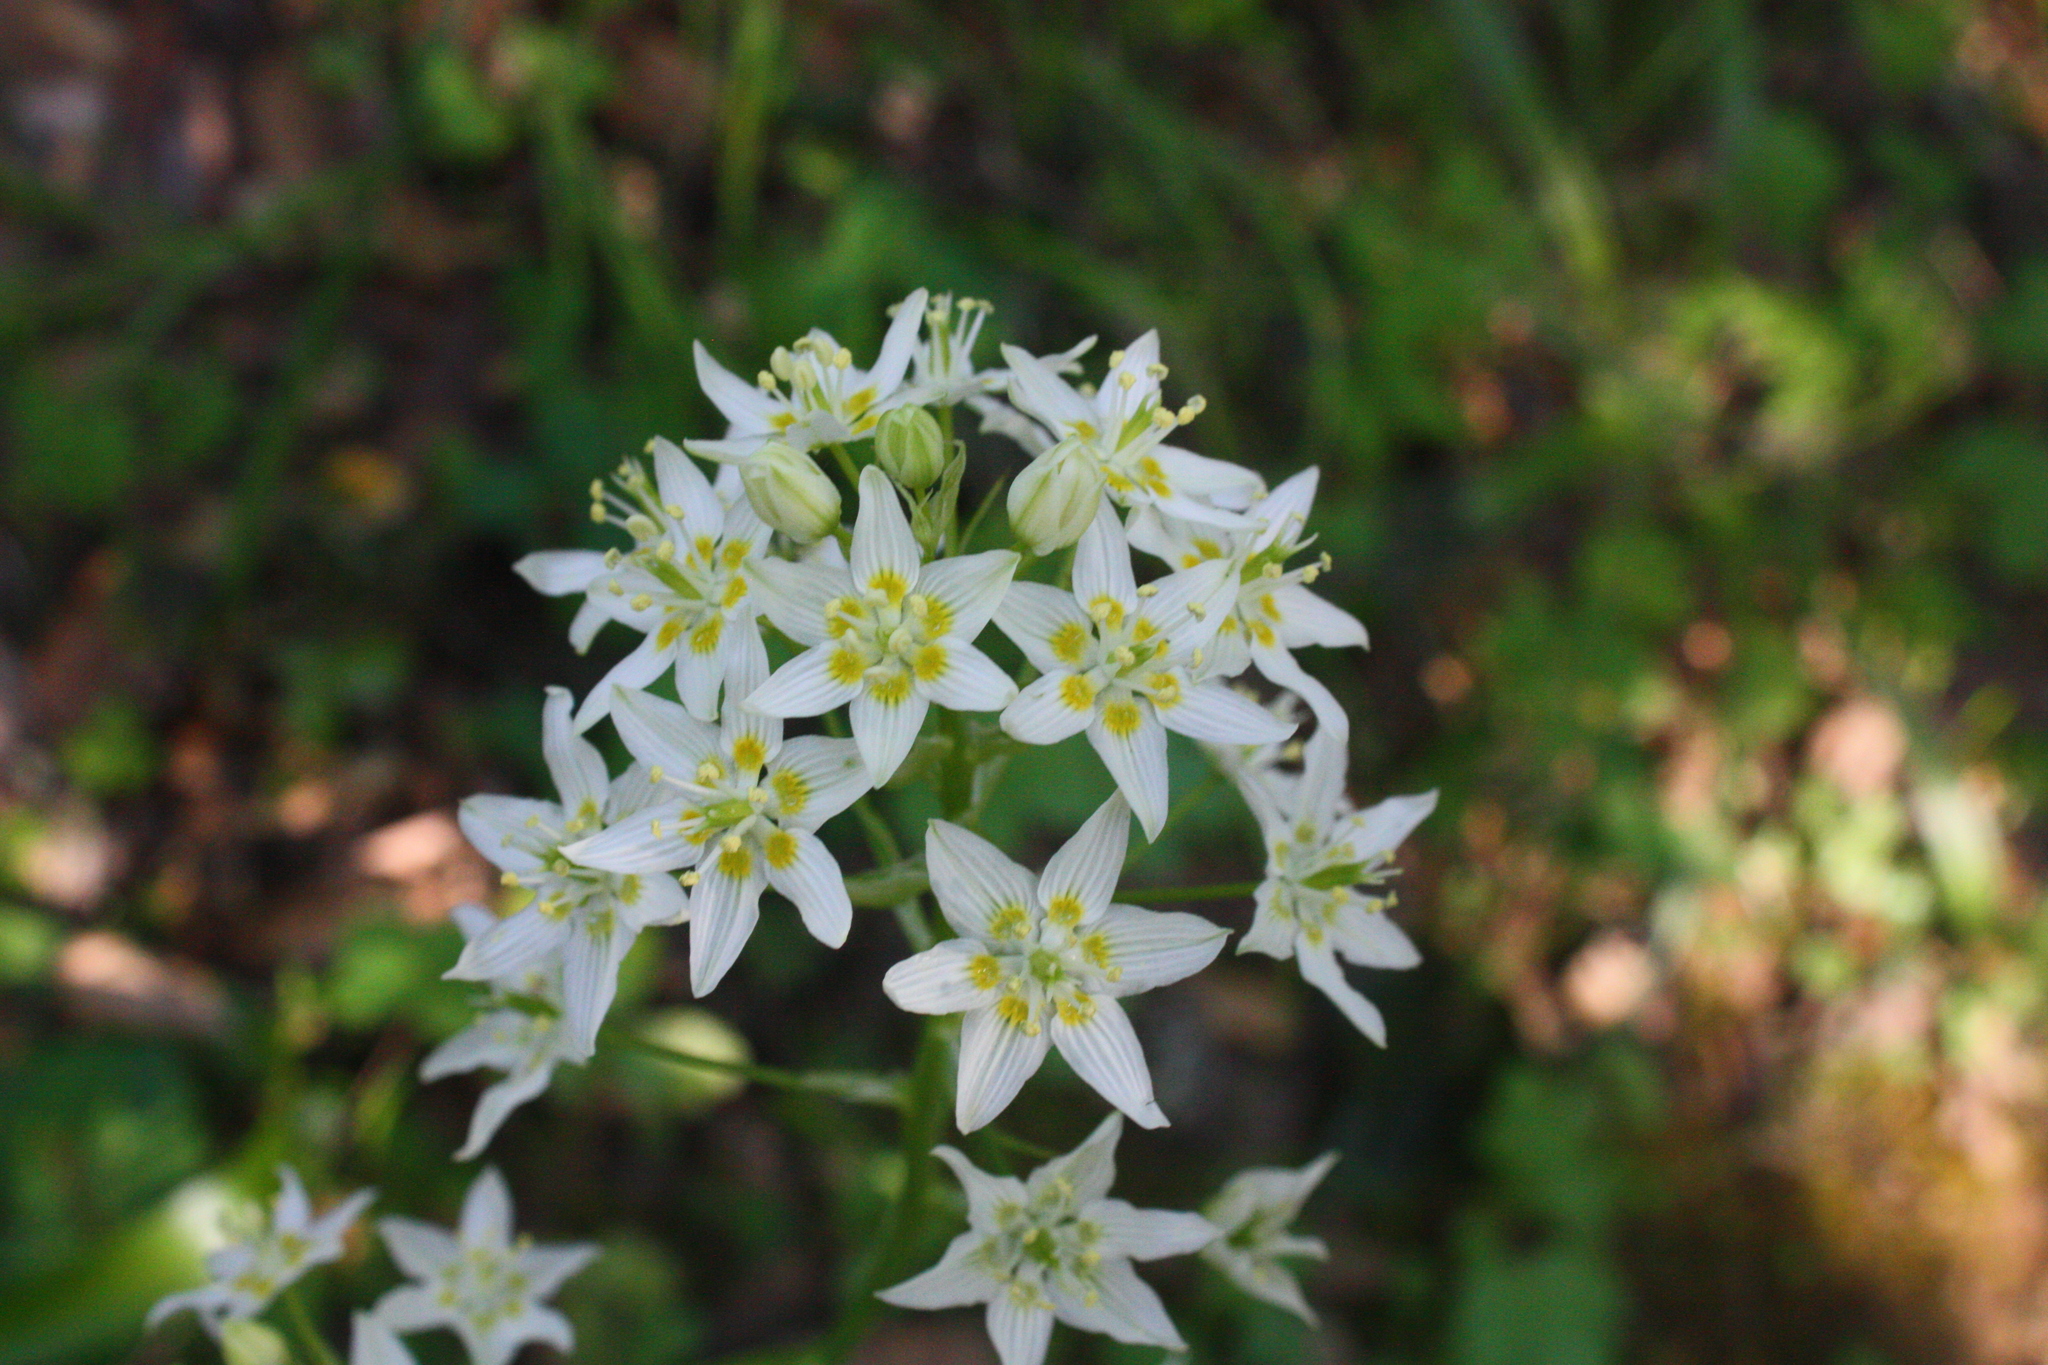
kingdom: Plantae
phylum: Tracheophyta
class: Liliopsida
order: Liliales
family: Melanthiaceae
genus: Toxicoscordion
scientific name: Toxicoscordion fremontii
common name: Fremont's death camas
